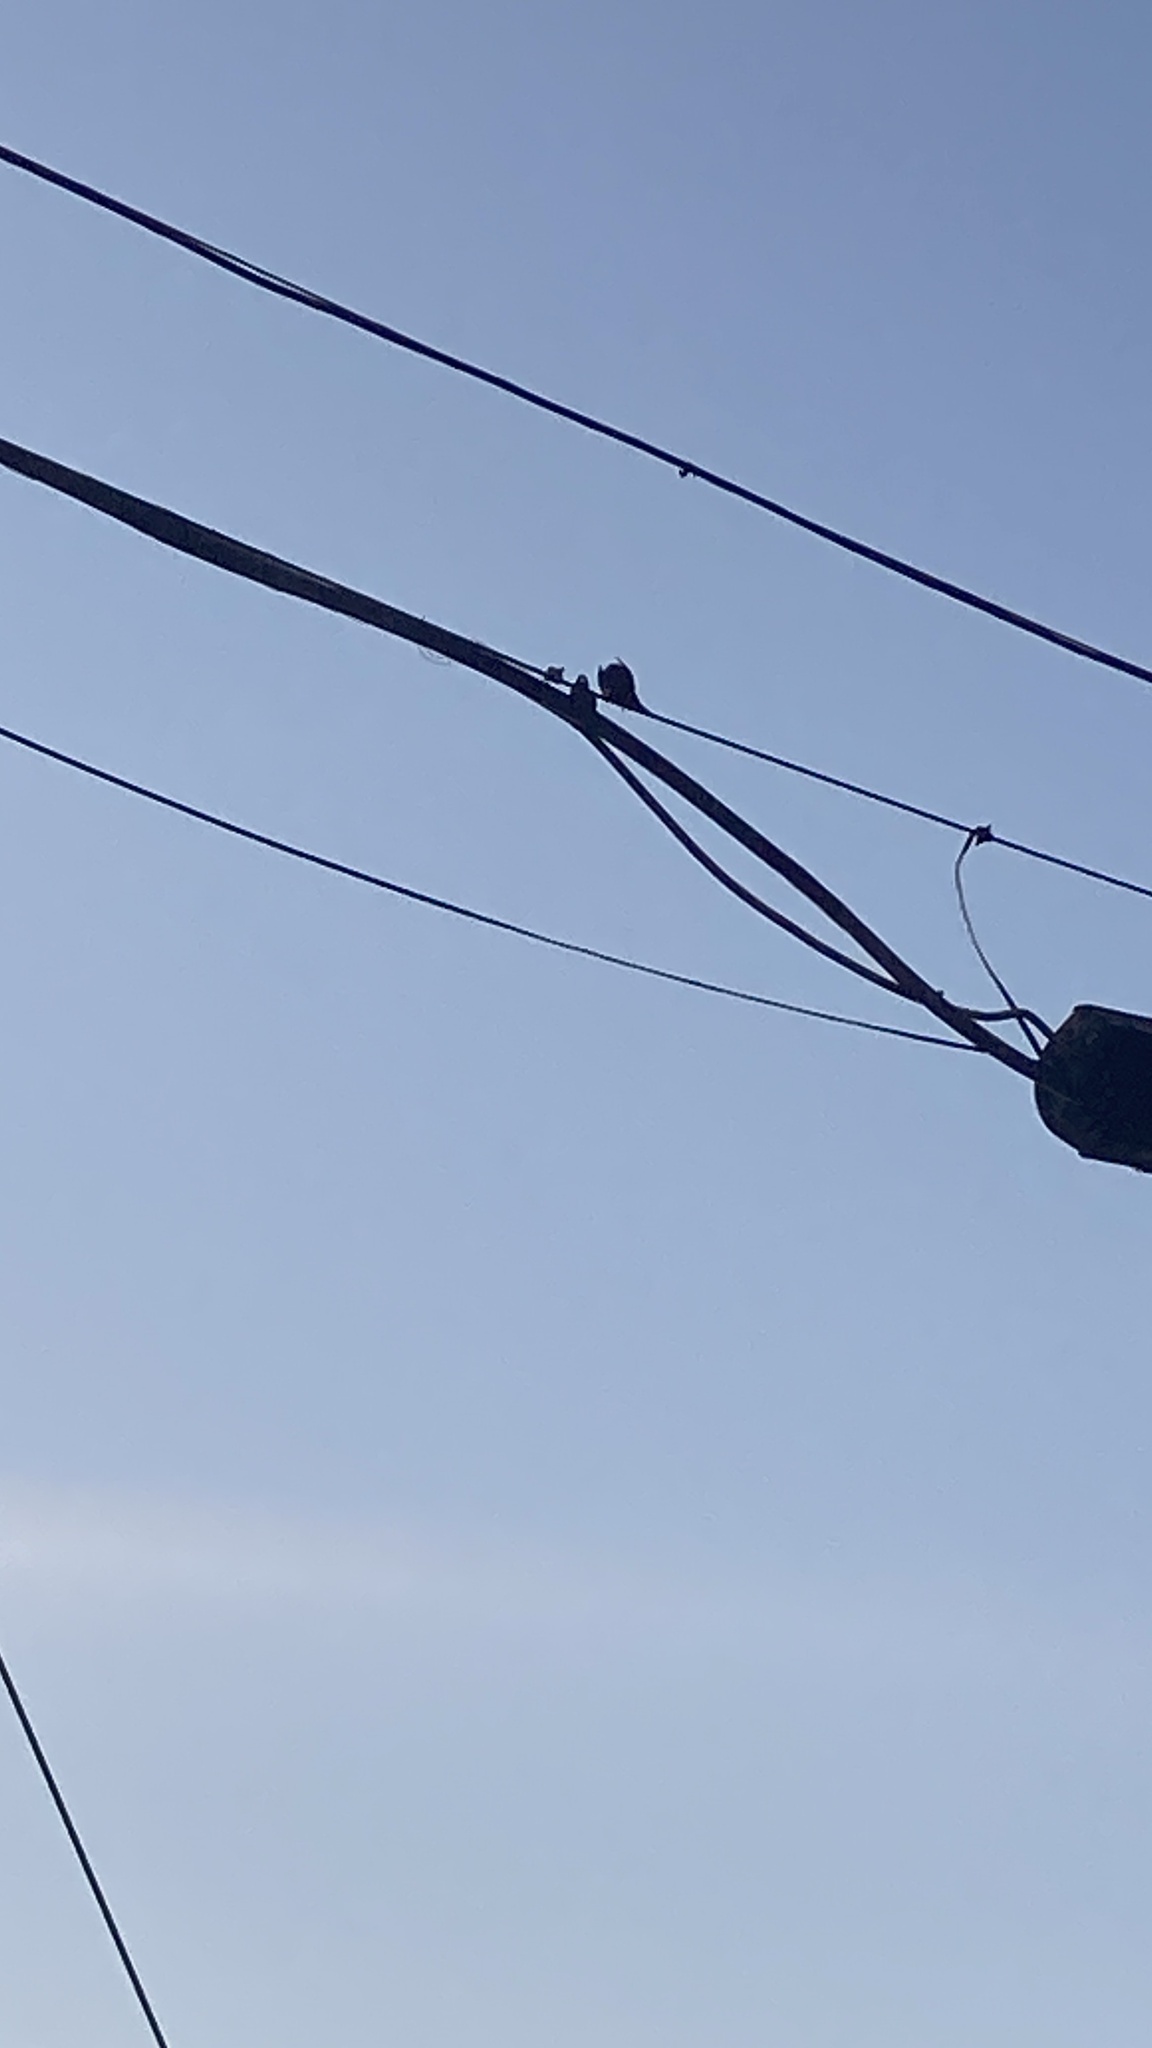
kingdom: Animalia
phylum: Chordata
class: Aves
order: Passeriformes
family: Sturnidae
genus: Sturnus
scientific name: Sturnus vulgaris
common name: Common starling
